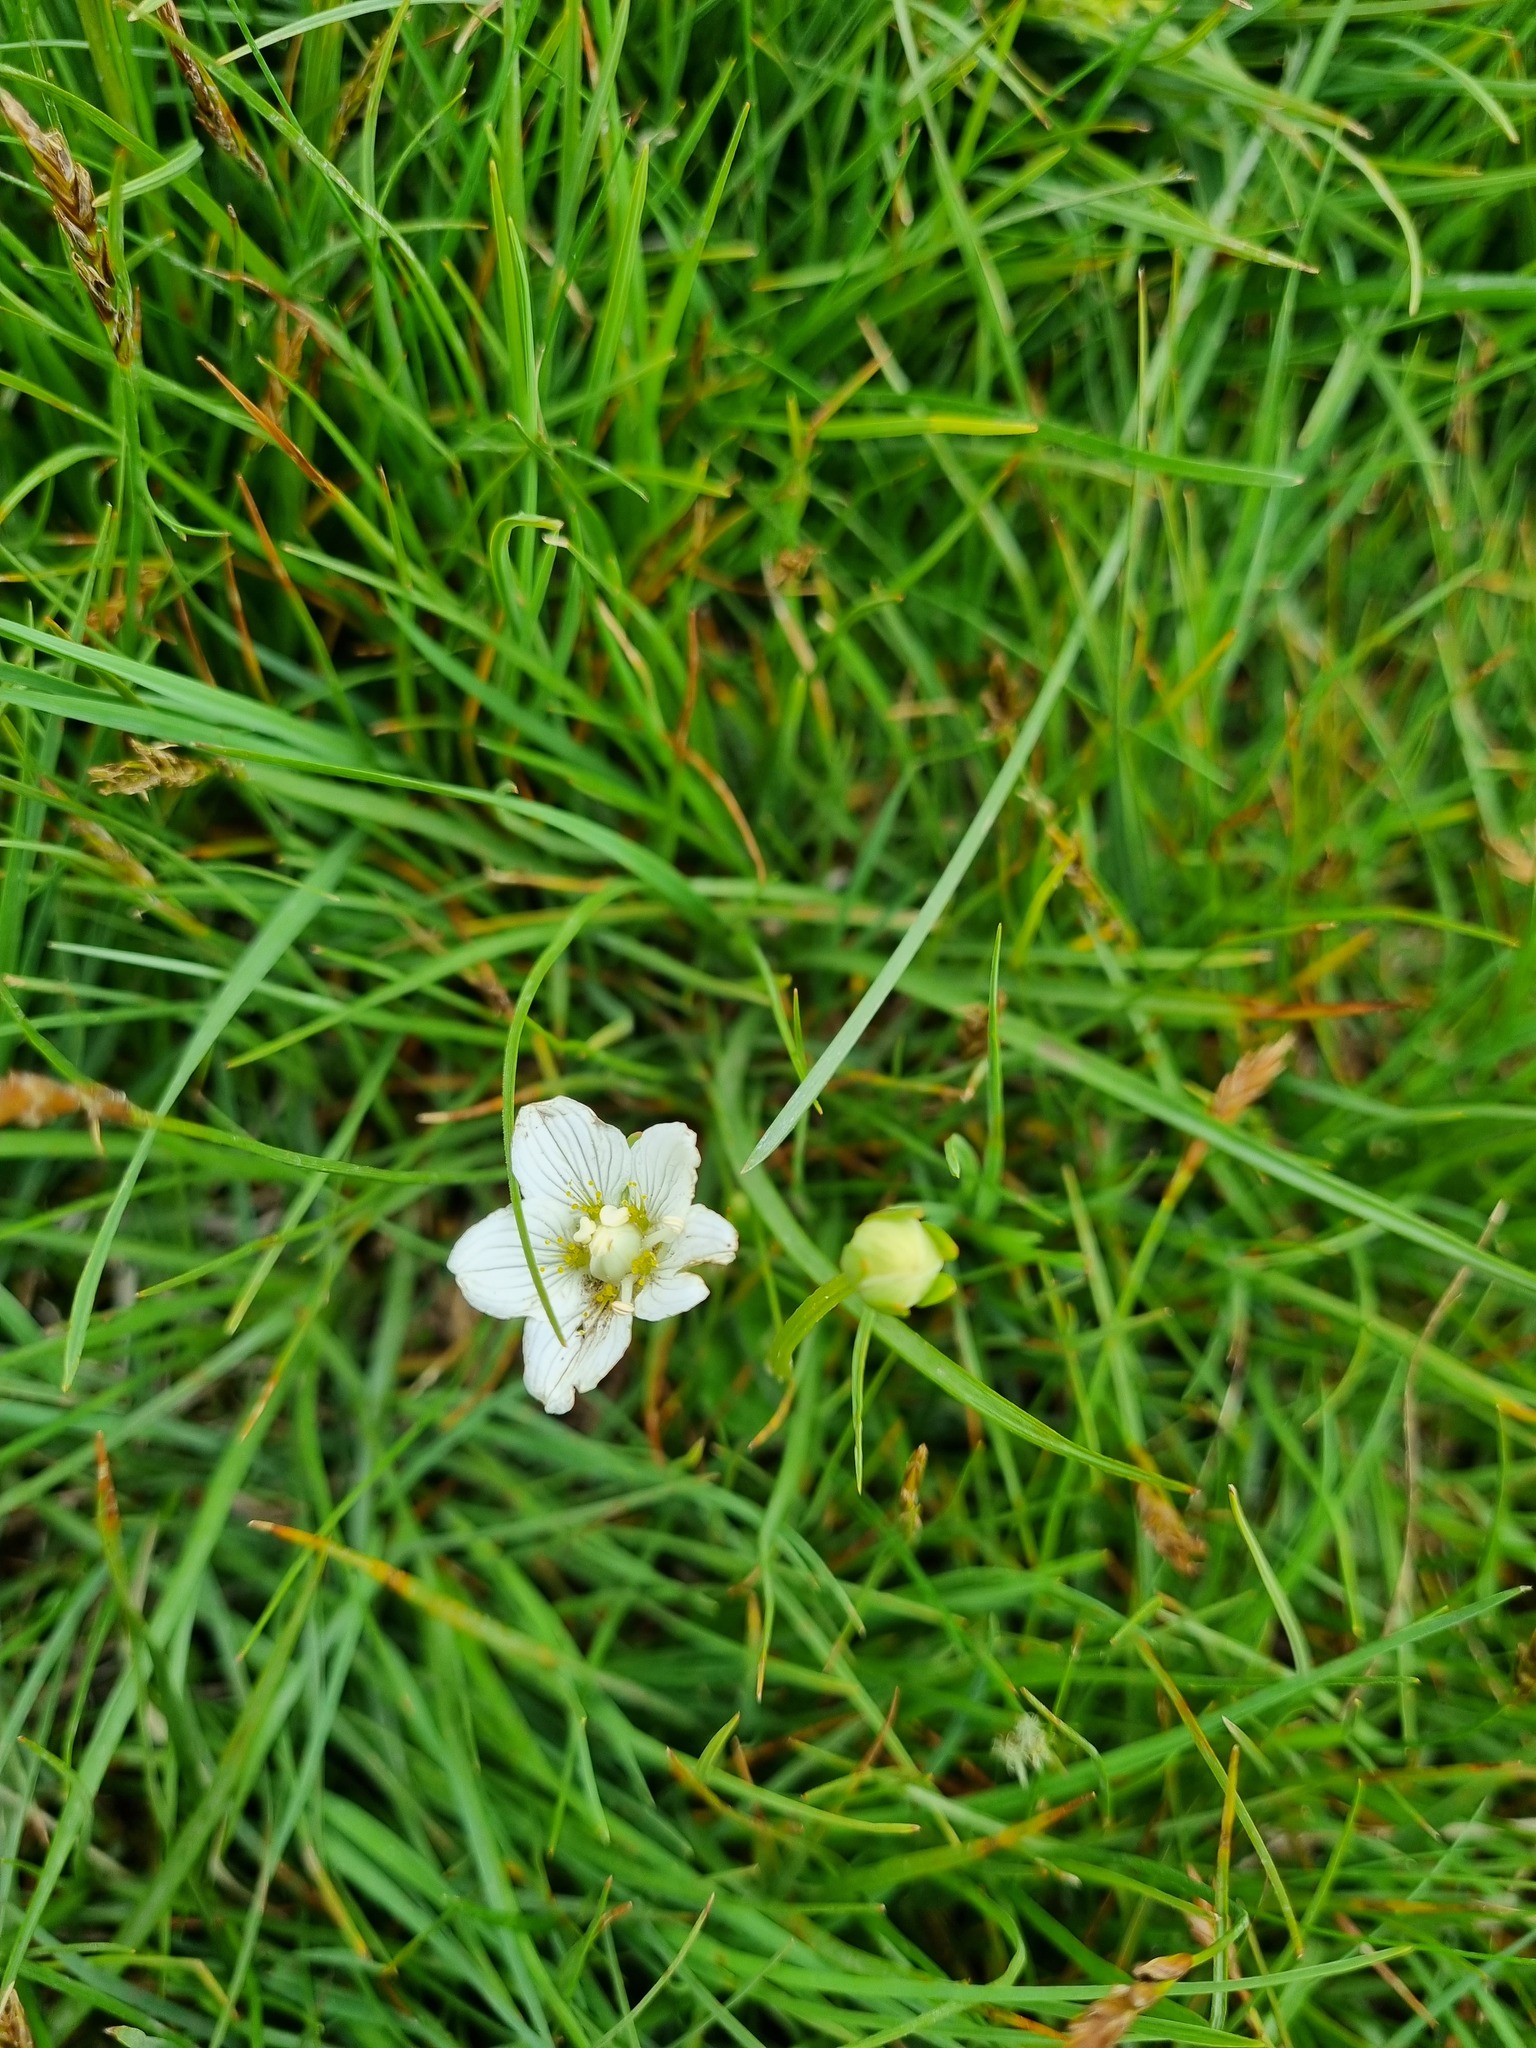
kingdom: Plantae
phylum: Tracheophyta
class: Magnoliopsida
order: Celastrales
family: Parnassiaceae
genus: Parnassia
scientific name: Parnassia palustris
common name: Grass-of-parnassus
